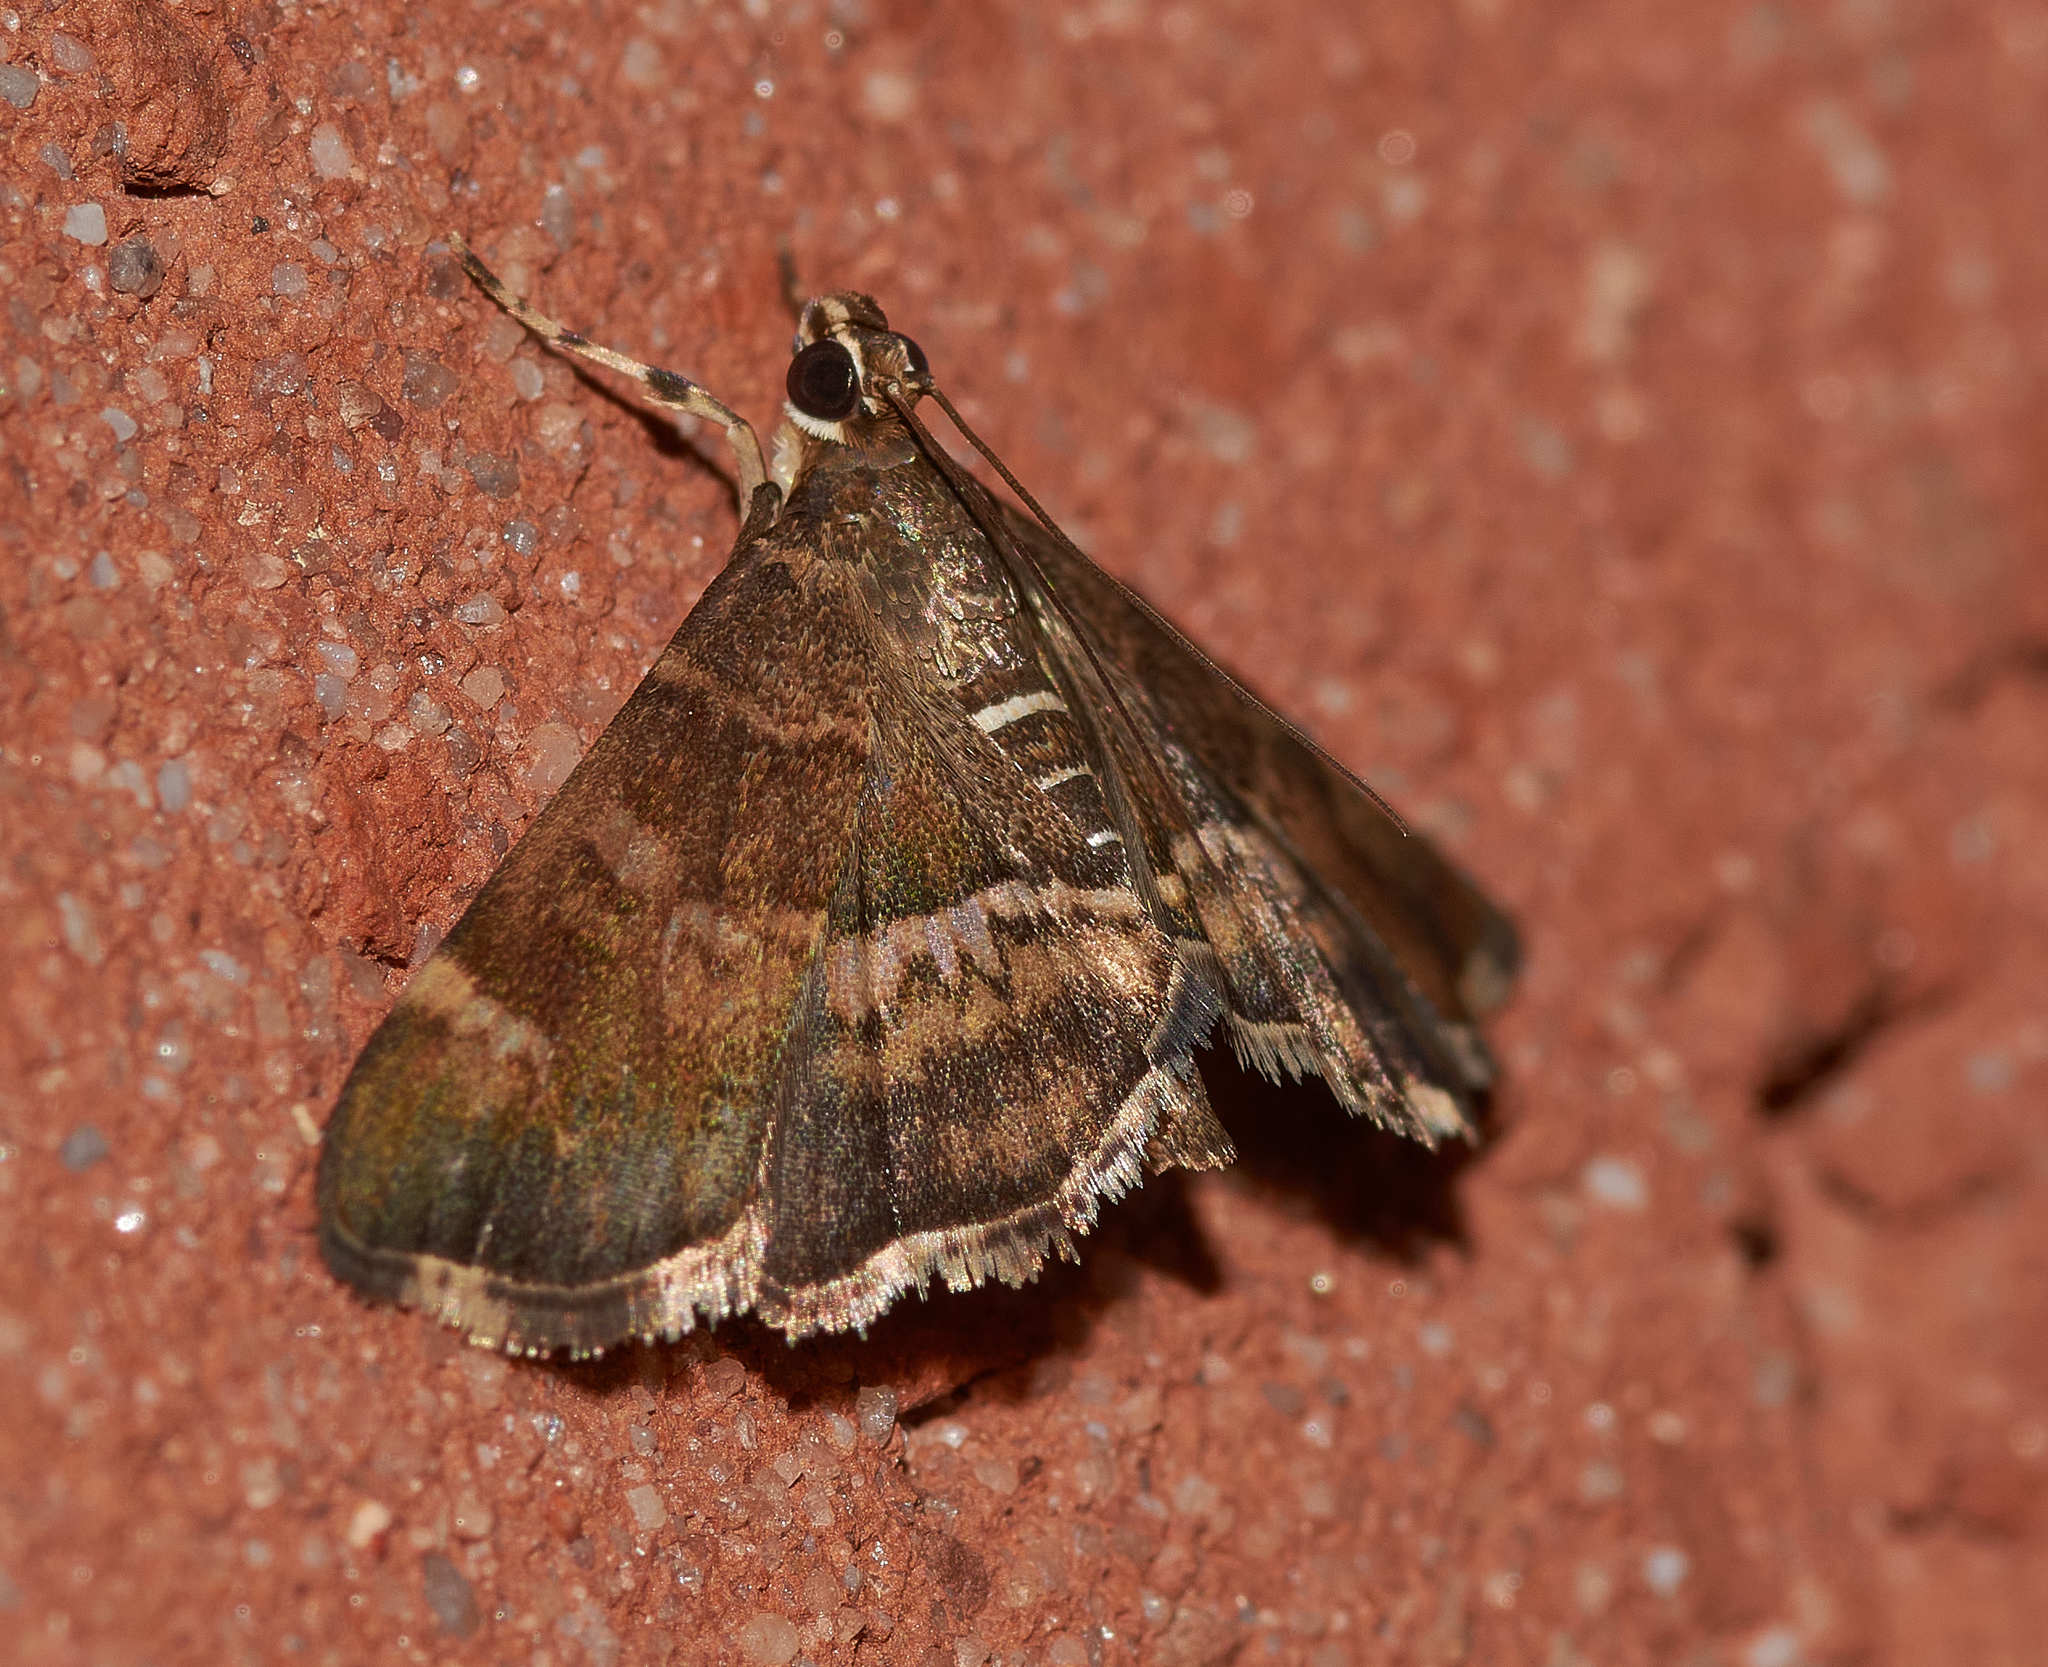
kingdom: Animalia
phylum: Arthropoda
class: Insecta
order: Lepidoptera
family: Crambidae
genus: Hymenia
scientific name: Hymenia perspectalis
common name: Spotted beet webworm
